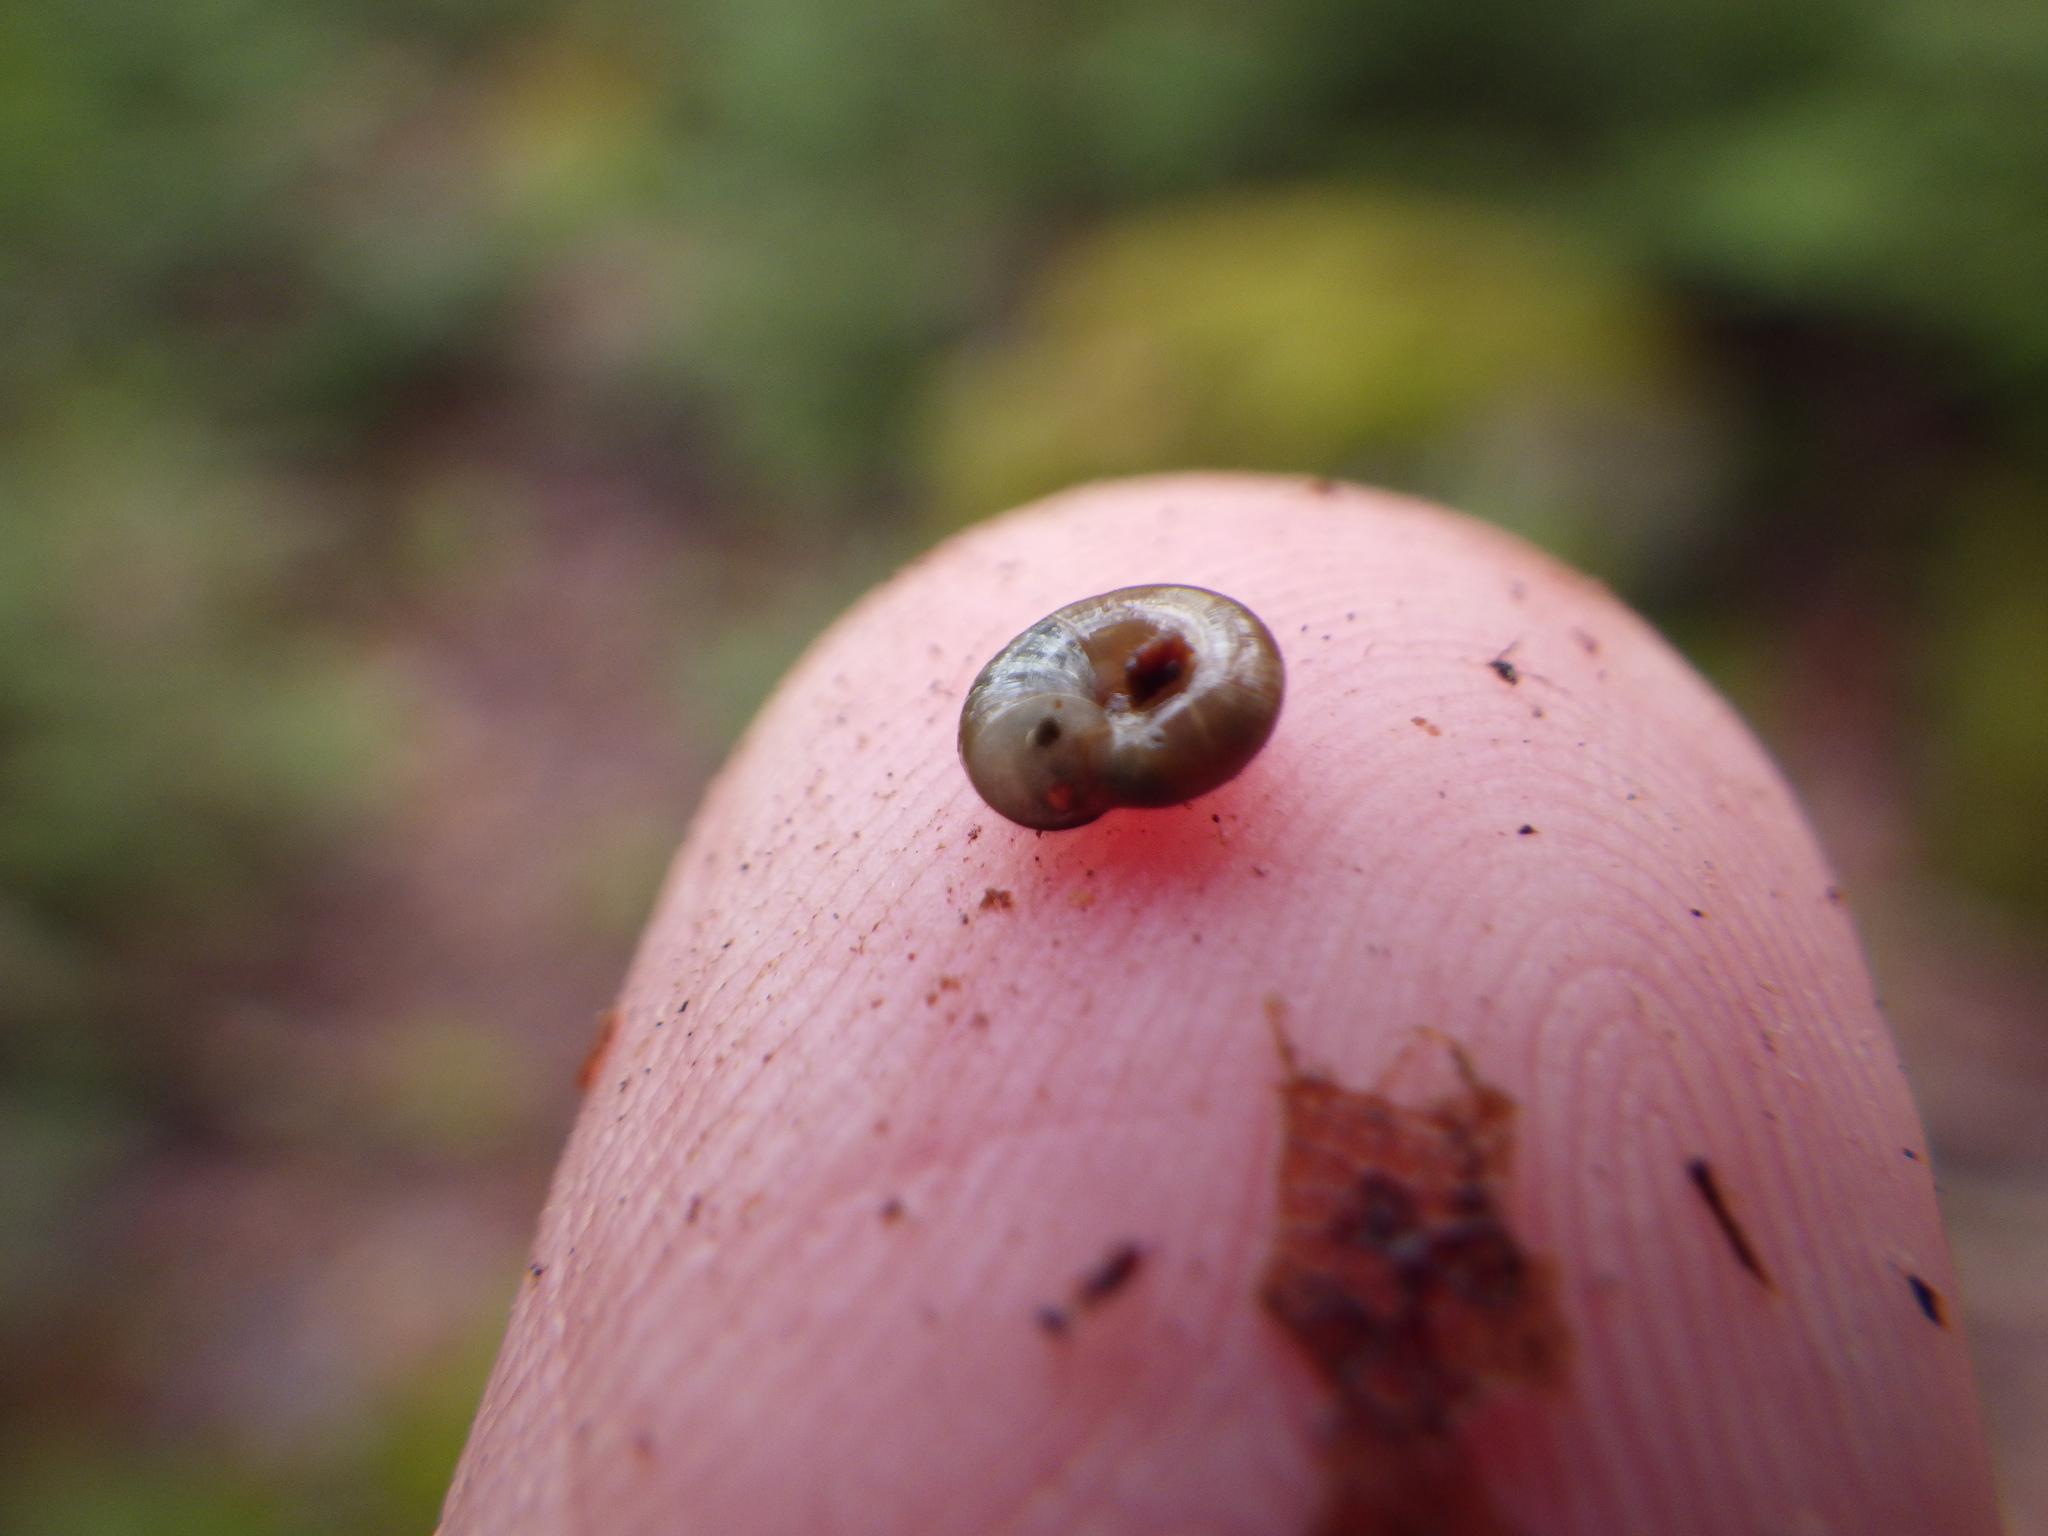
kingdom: Animalia
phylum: Mollusca
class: Gastropoda
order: Stylommatophora
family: Gastrodontidae
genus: Zonitoides
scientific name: Zonitoides arboreus
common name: Quick gloss
